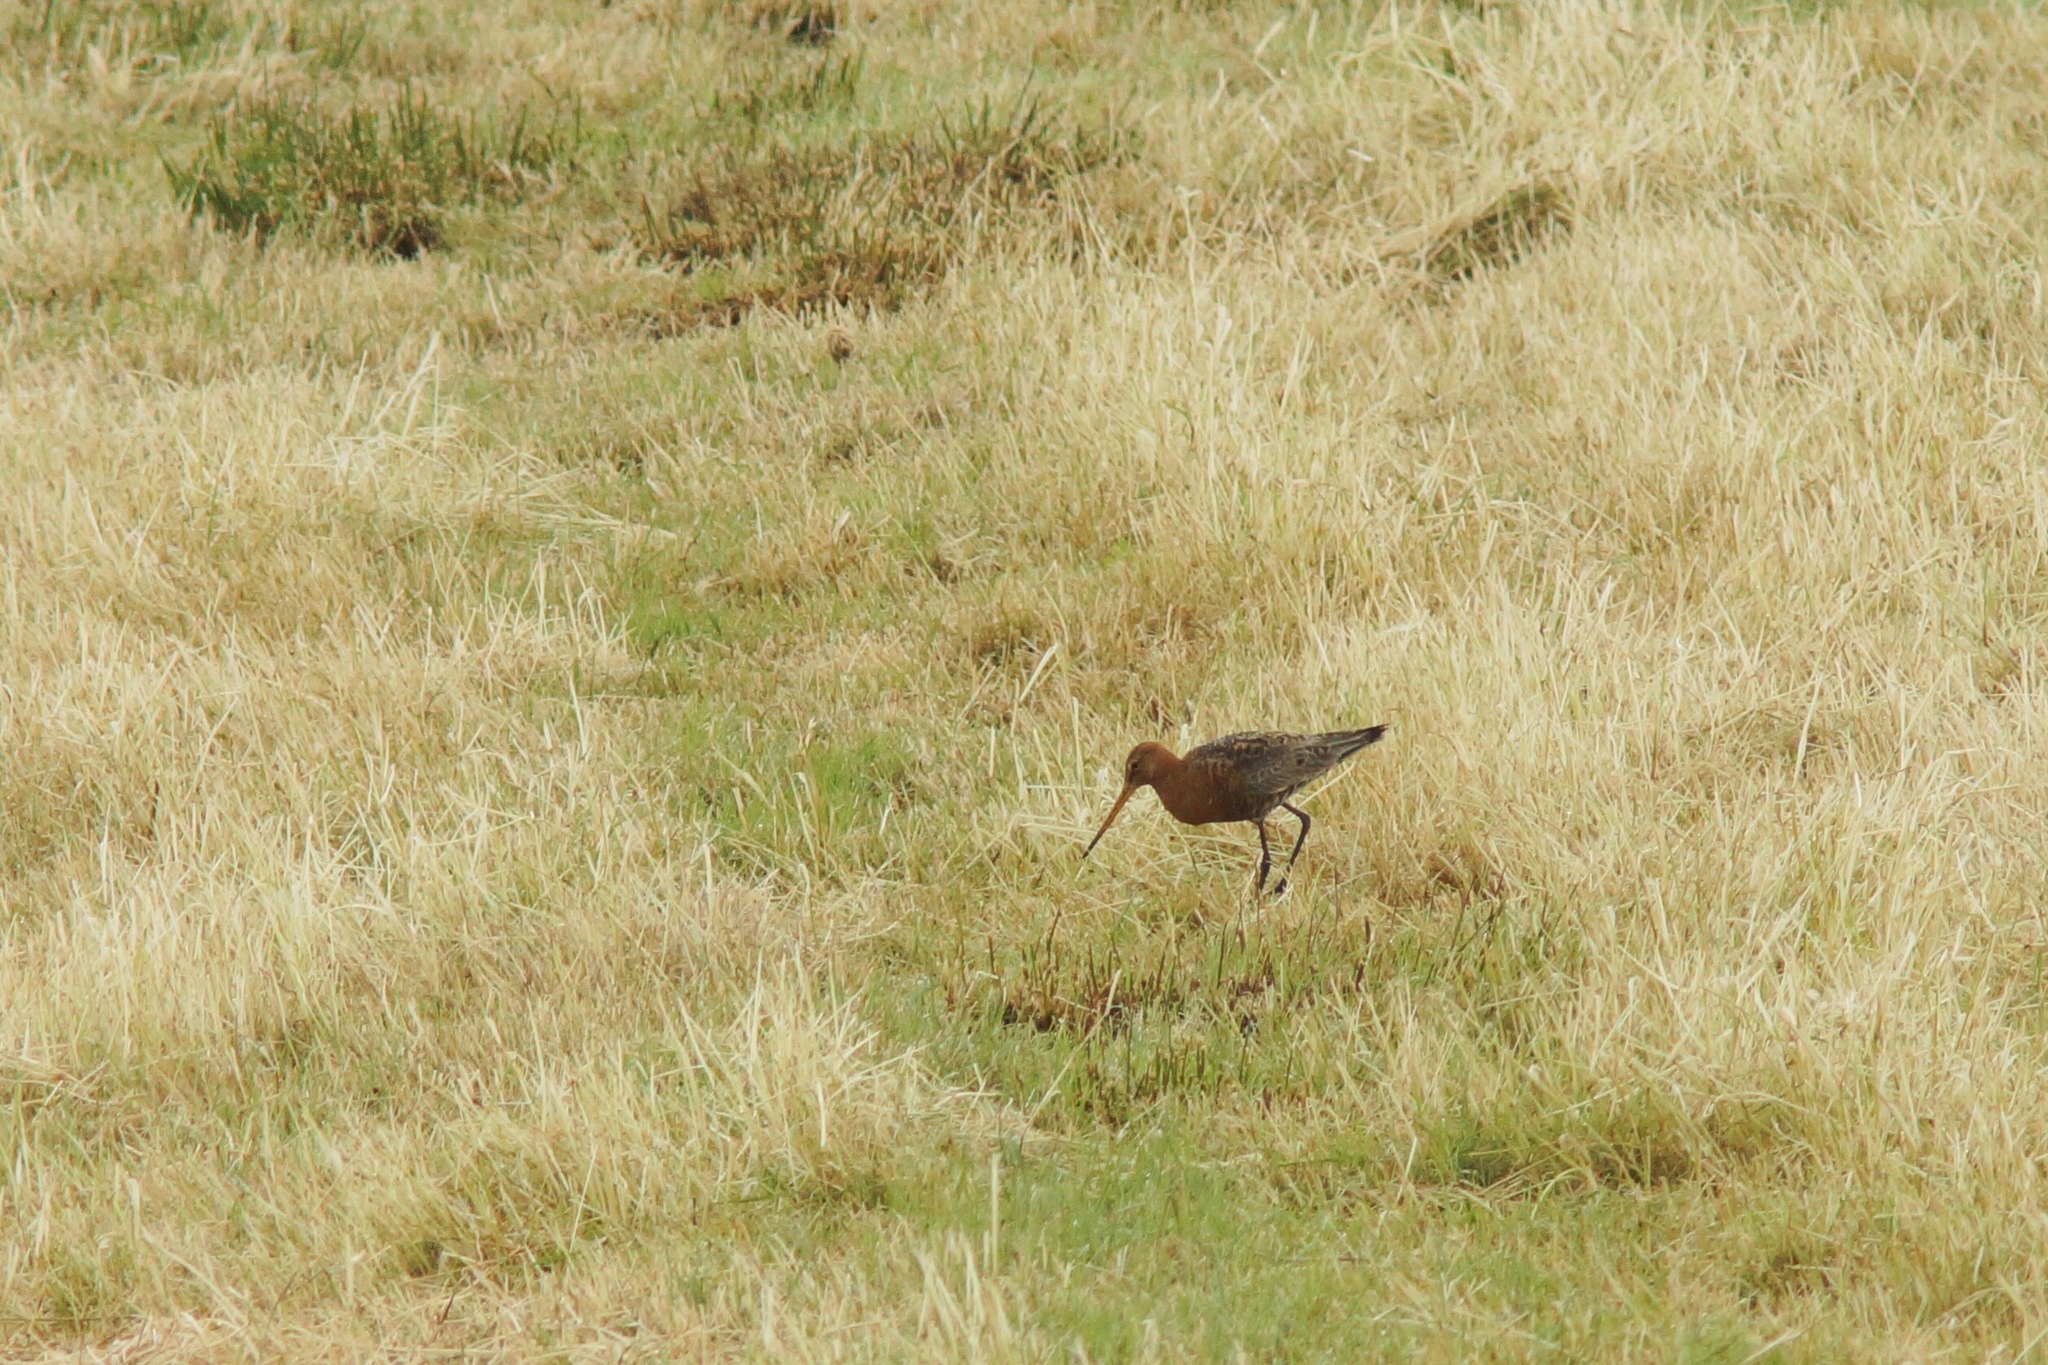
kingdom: Animalia
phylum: Chordata
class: Aves
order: Charadriiformes
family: Scolopacidae
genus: Limosa
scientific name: Limosa limosa
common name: Black-tailed godwit
